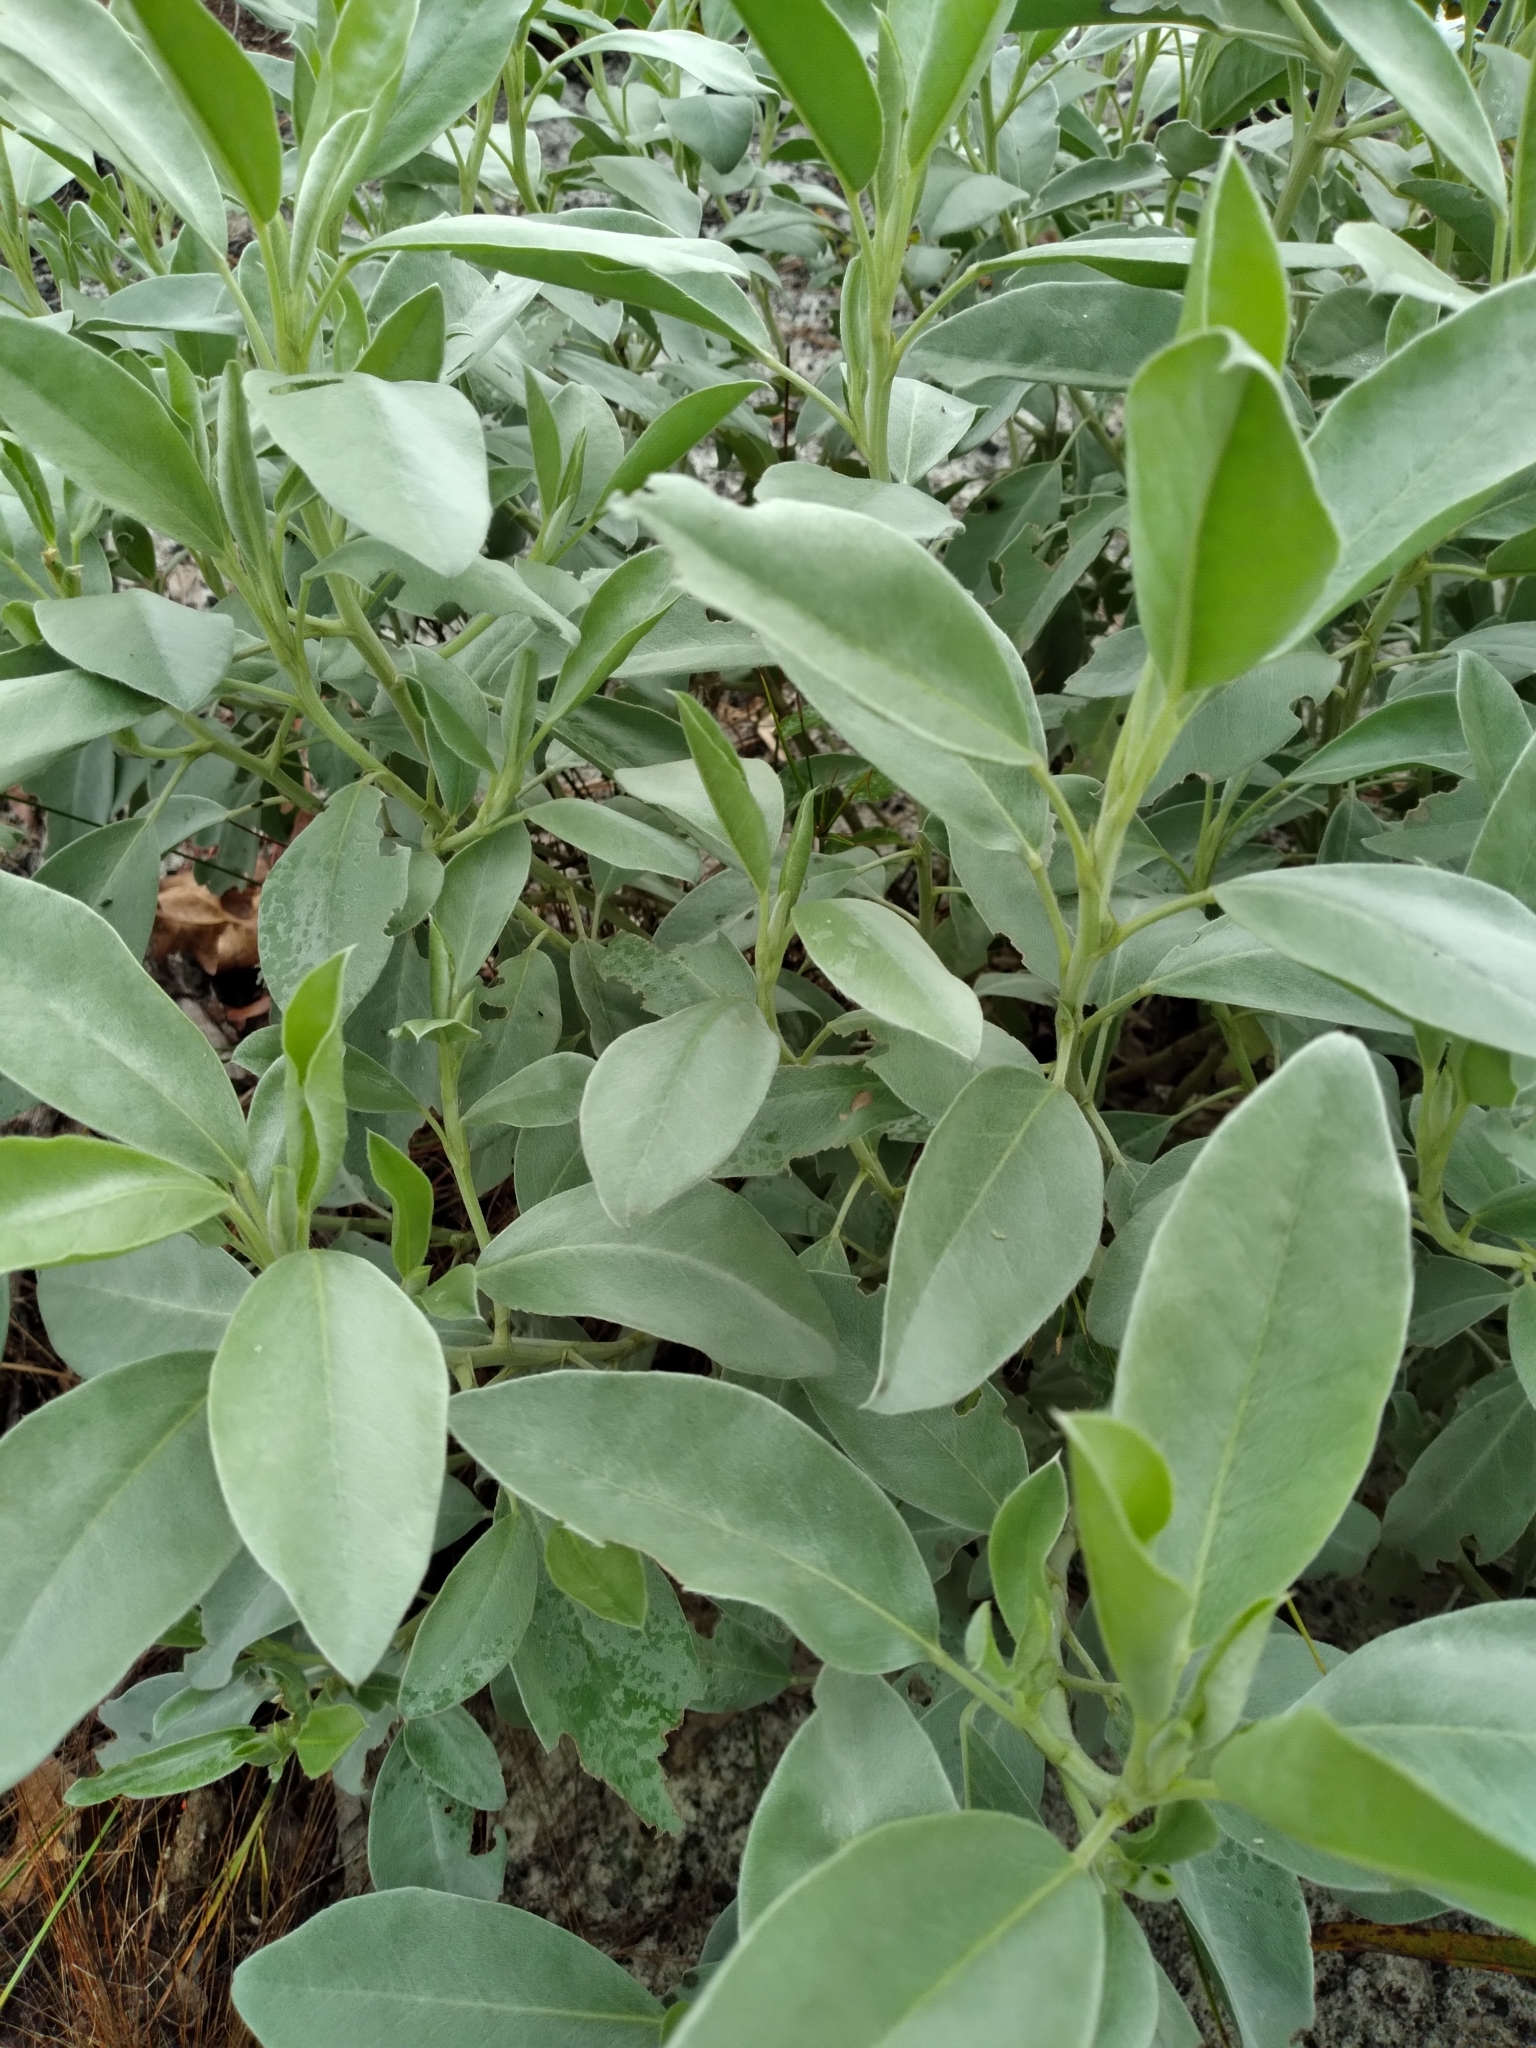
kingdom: Plantae
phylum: Tracheophyta
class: Magnoliopsida
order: Fabales
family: Fabaceae
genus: Lupinus
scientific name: Lupinus cumulicola
